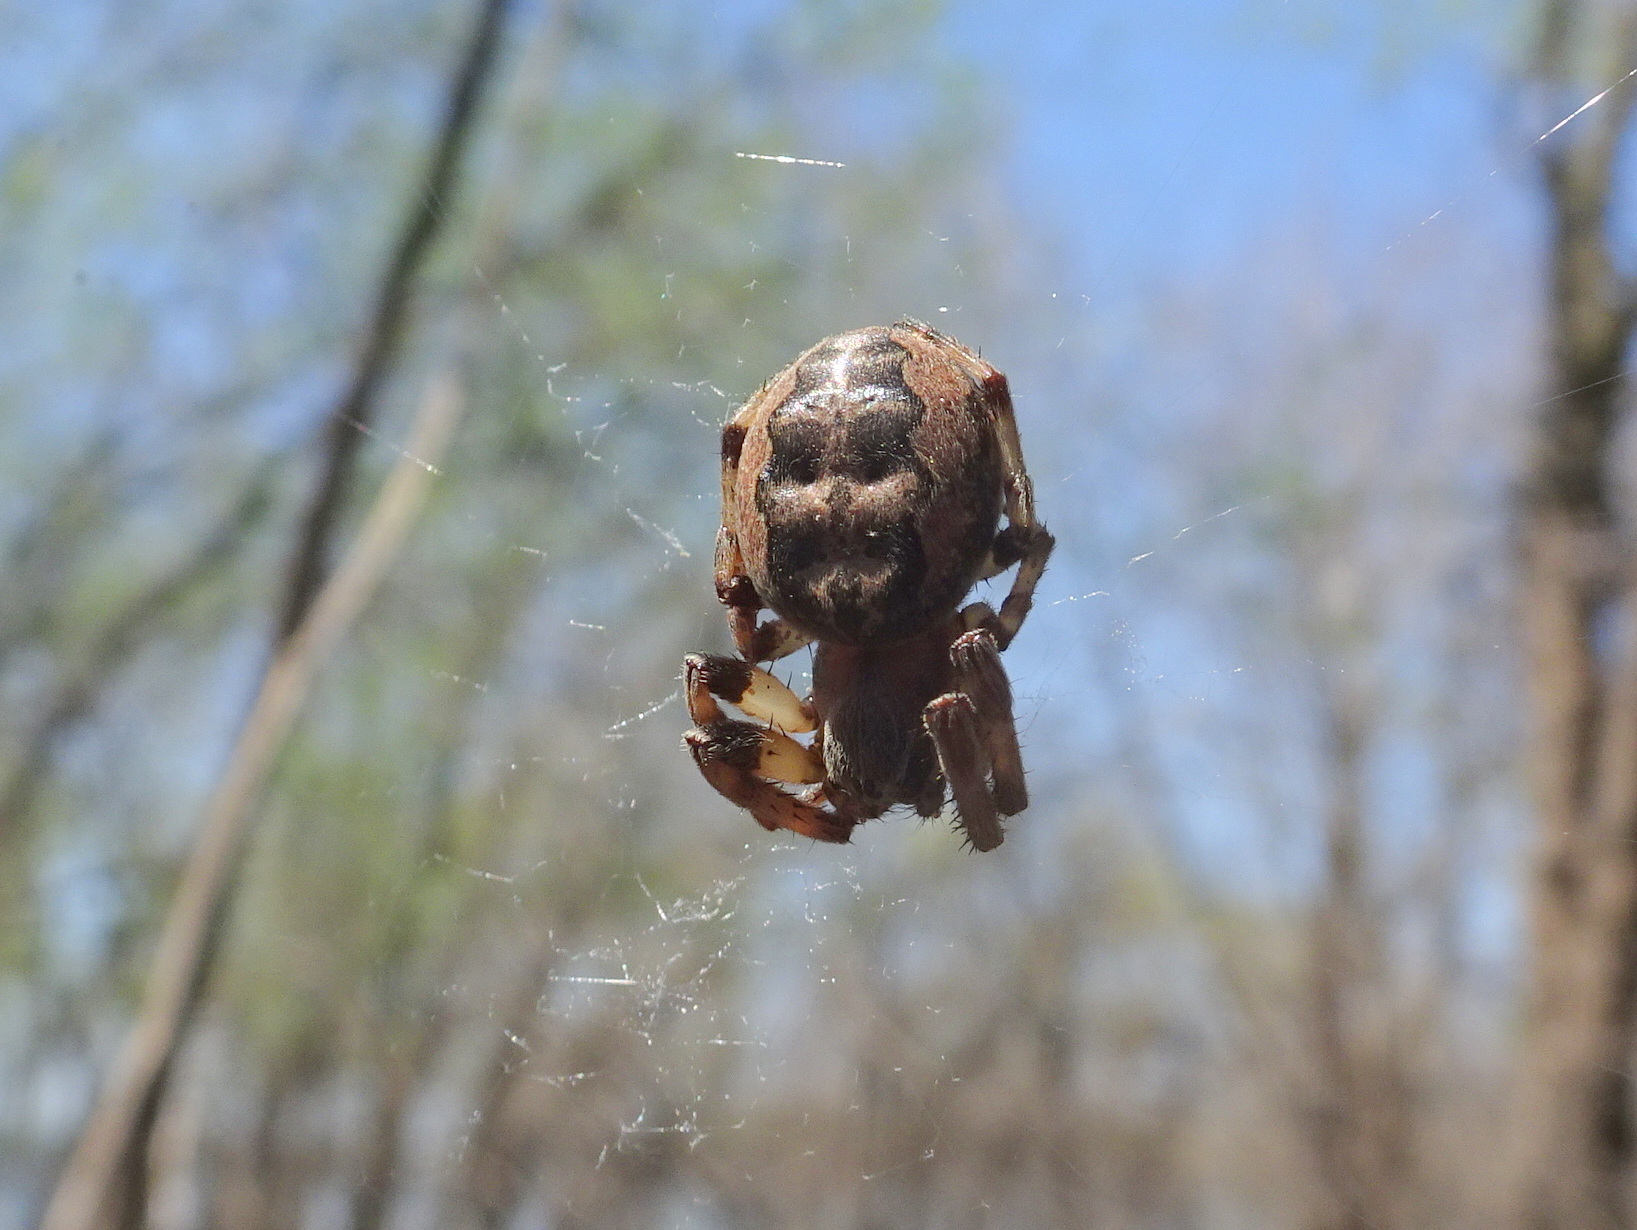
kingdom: Animalia
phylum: Arthropoda
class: Arachnida
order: Araneae
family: Araneidae
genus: Larinioides
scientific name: Larinioides cornutus
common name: Furrow orbweaver
